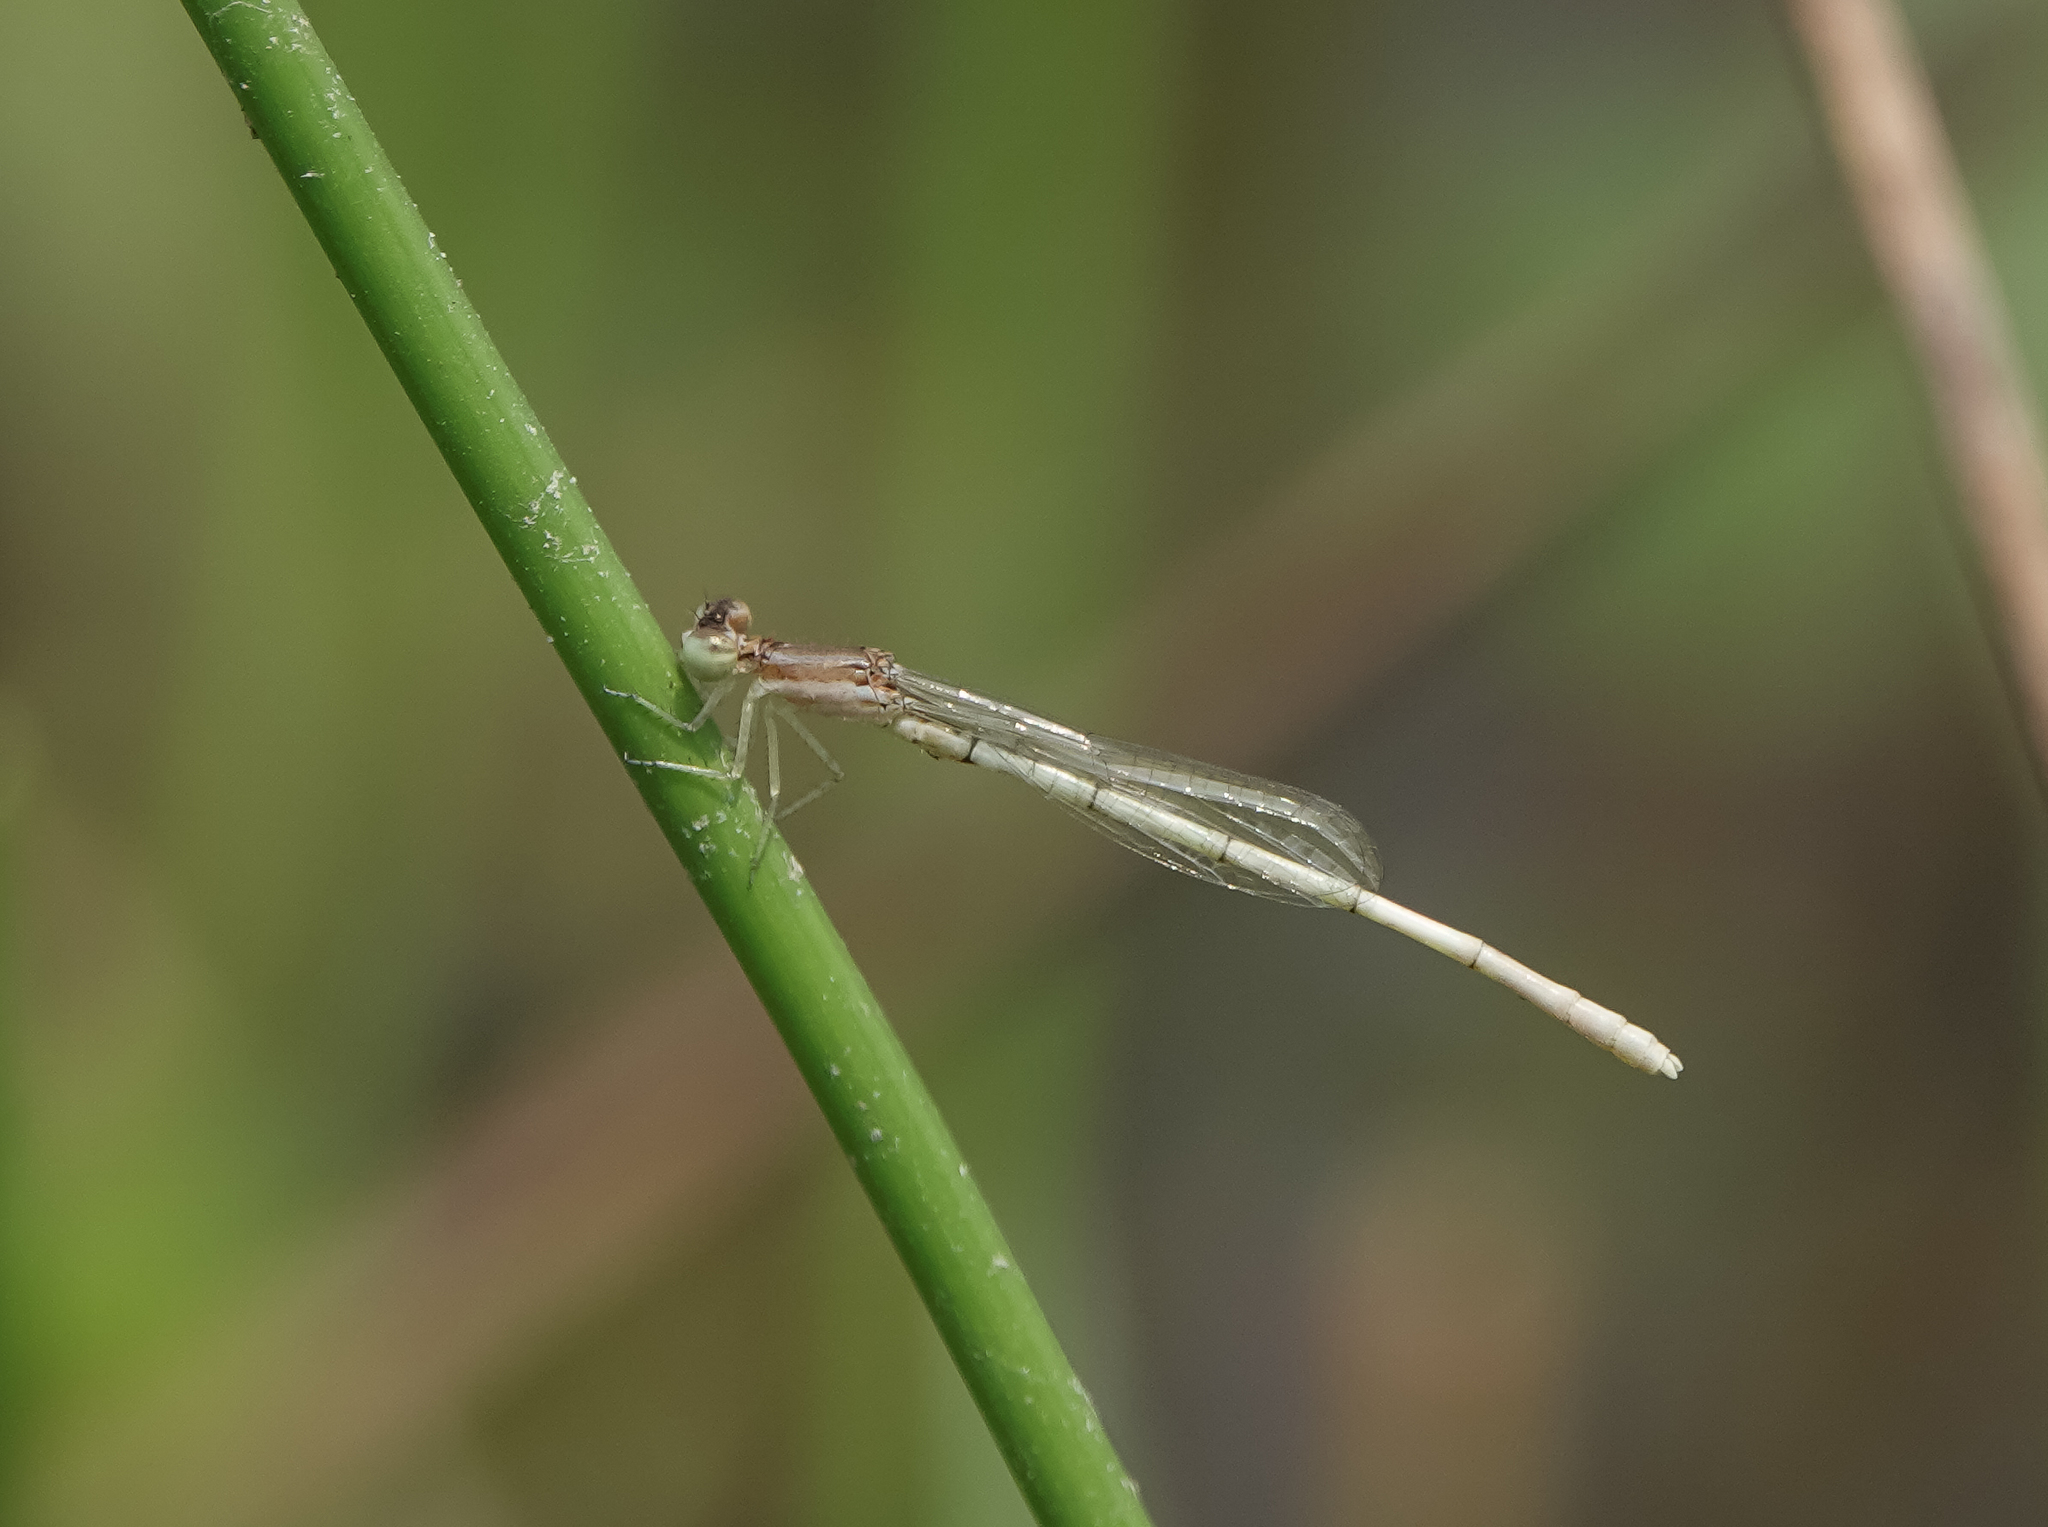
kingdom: Animalia
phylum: Arthropoda
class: Insecta
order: Odonata
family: Coenagrionidae
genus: Agriocnemis
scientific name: Agriocnemis lacteola
